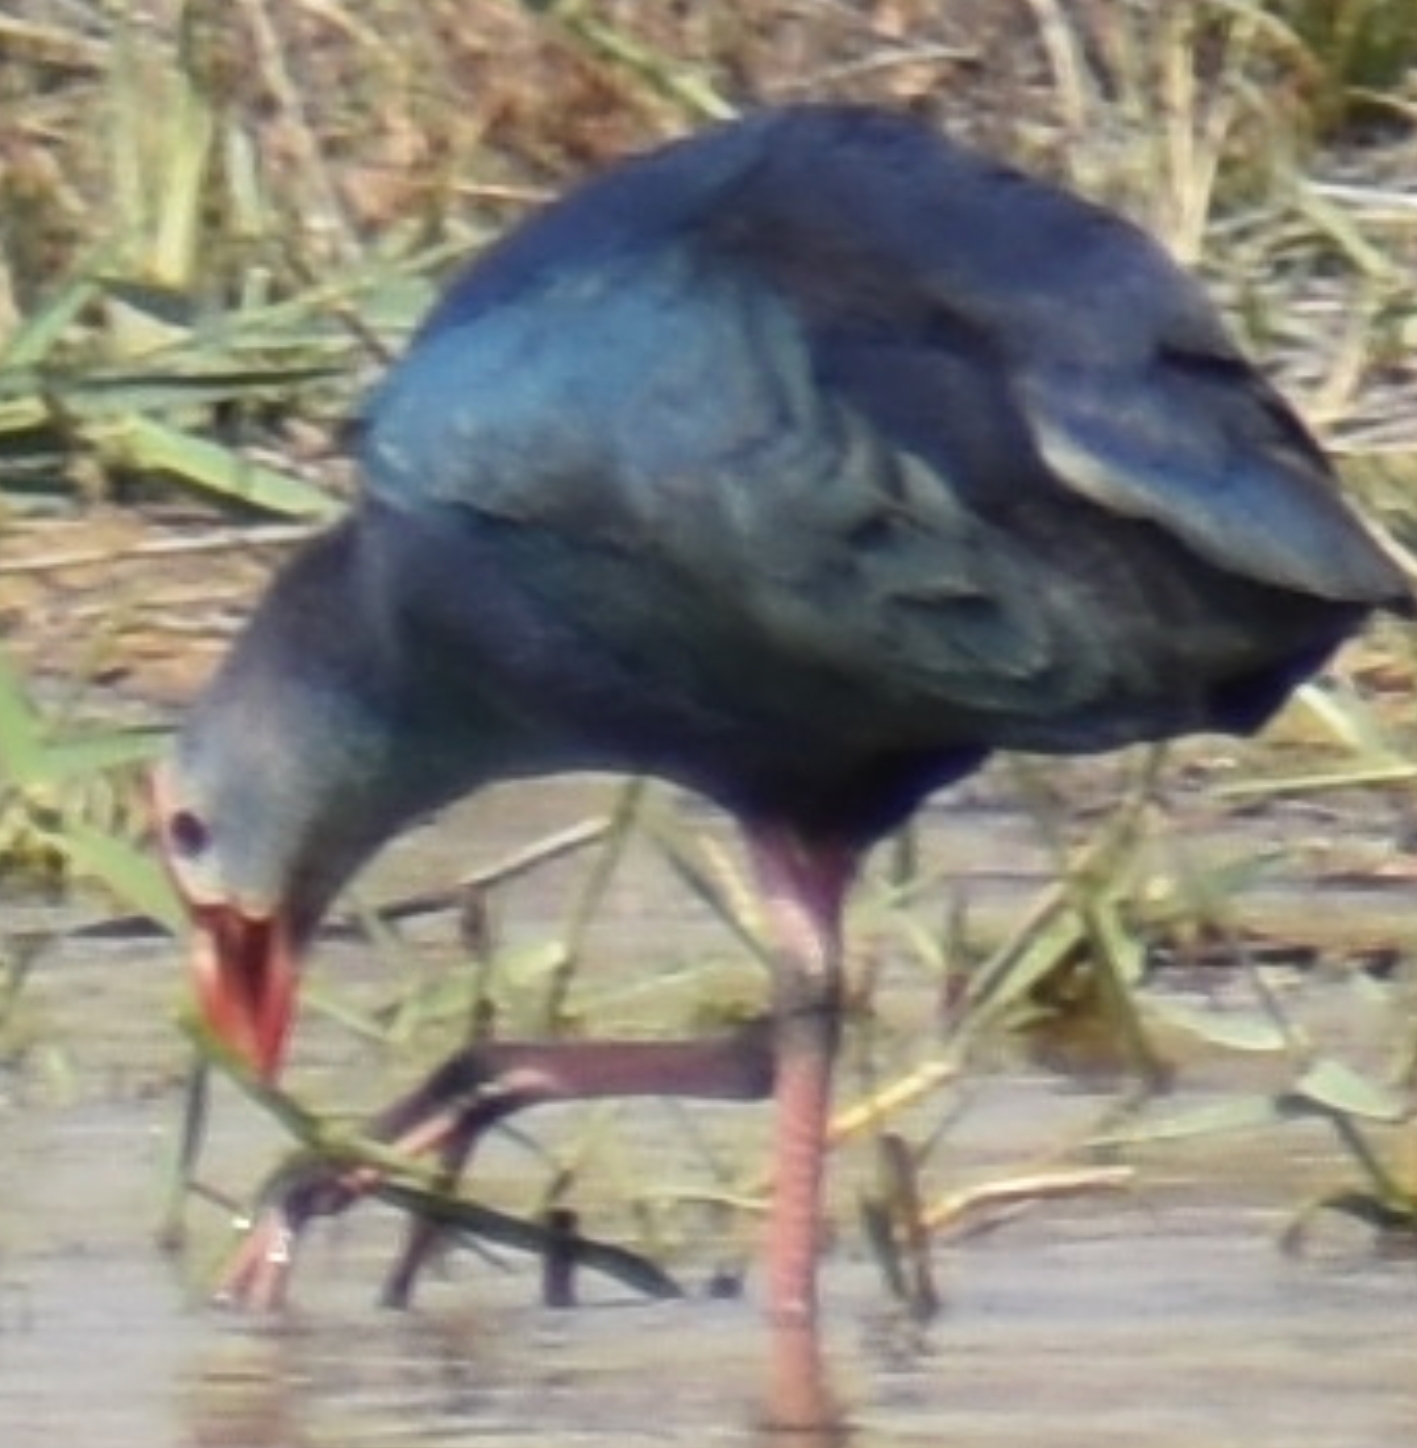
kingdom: Animalia
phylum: Chordata
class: Aves
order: Gruiformes
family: Rallidae
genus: Porphyrio
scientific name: Porphyrio porphyrio
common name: Purple swamphen
